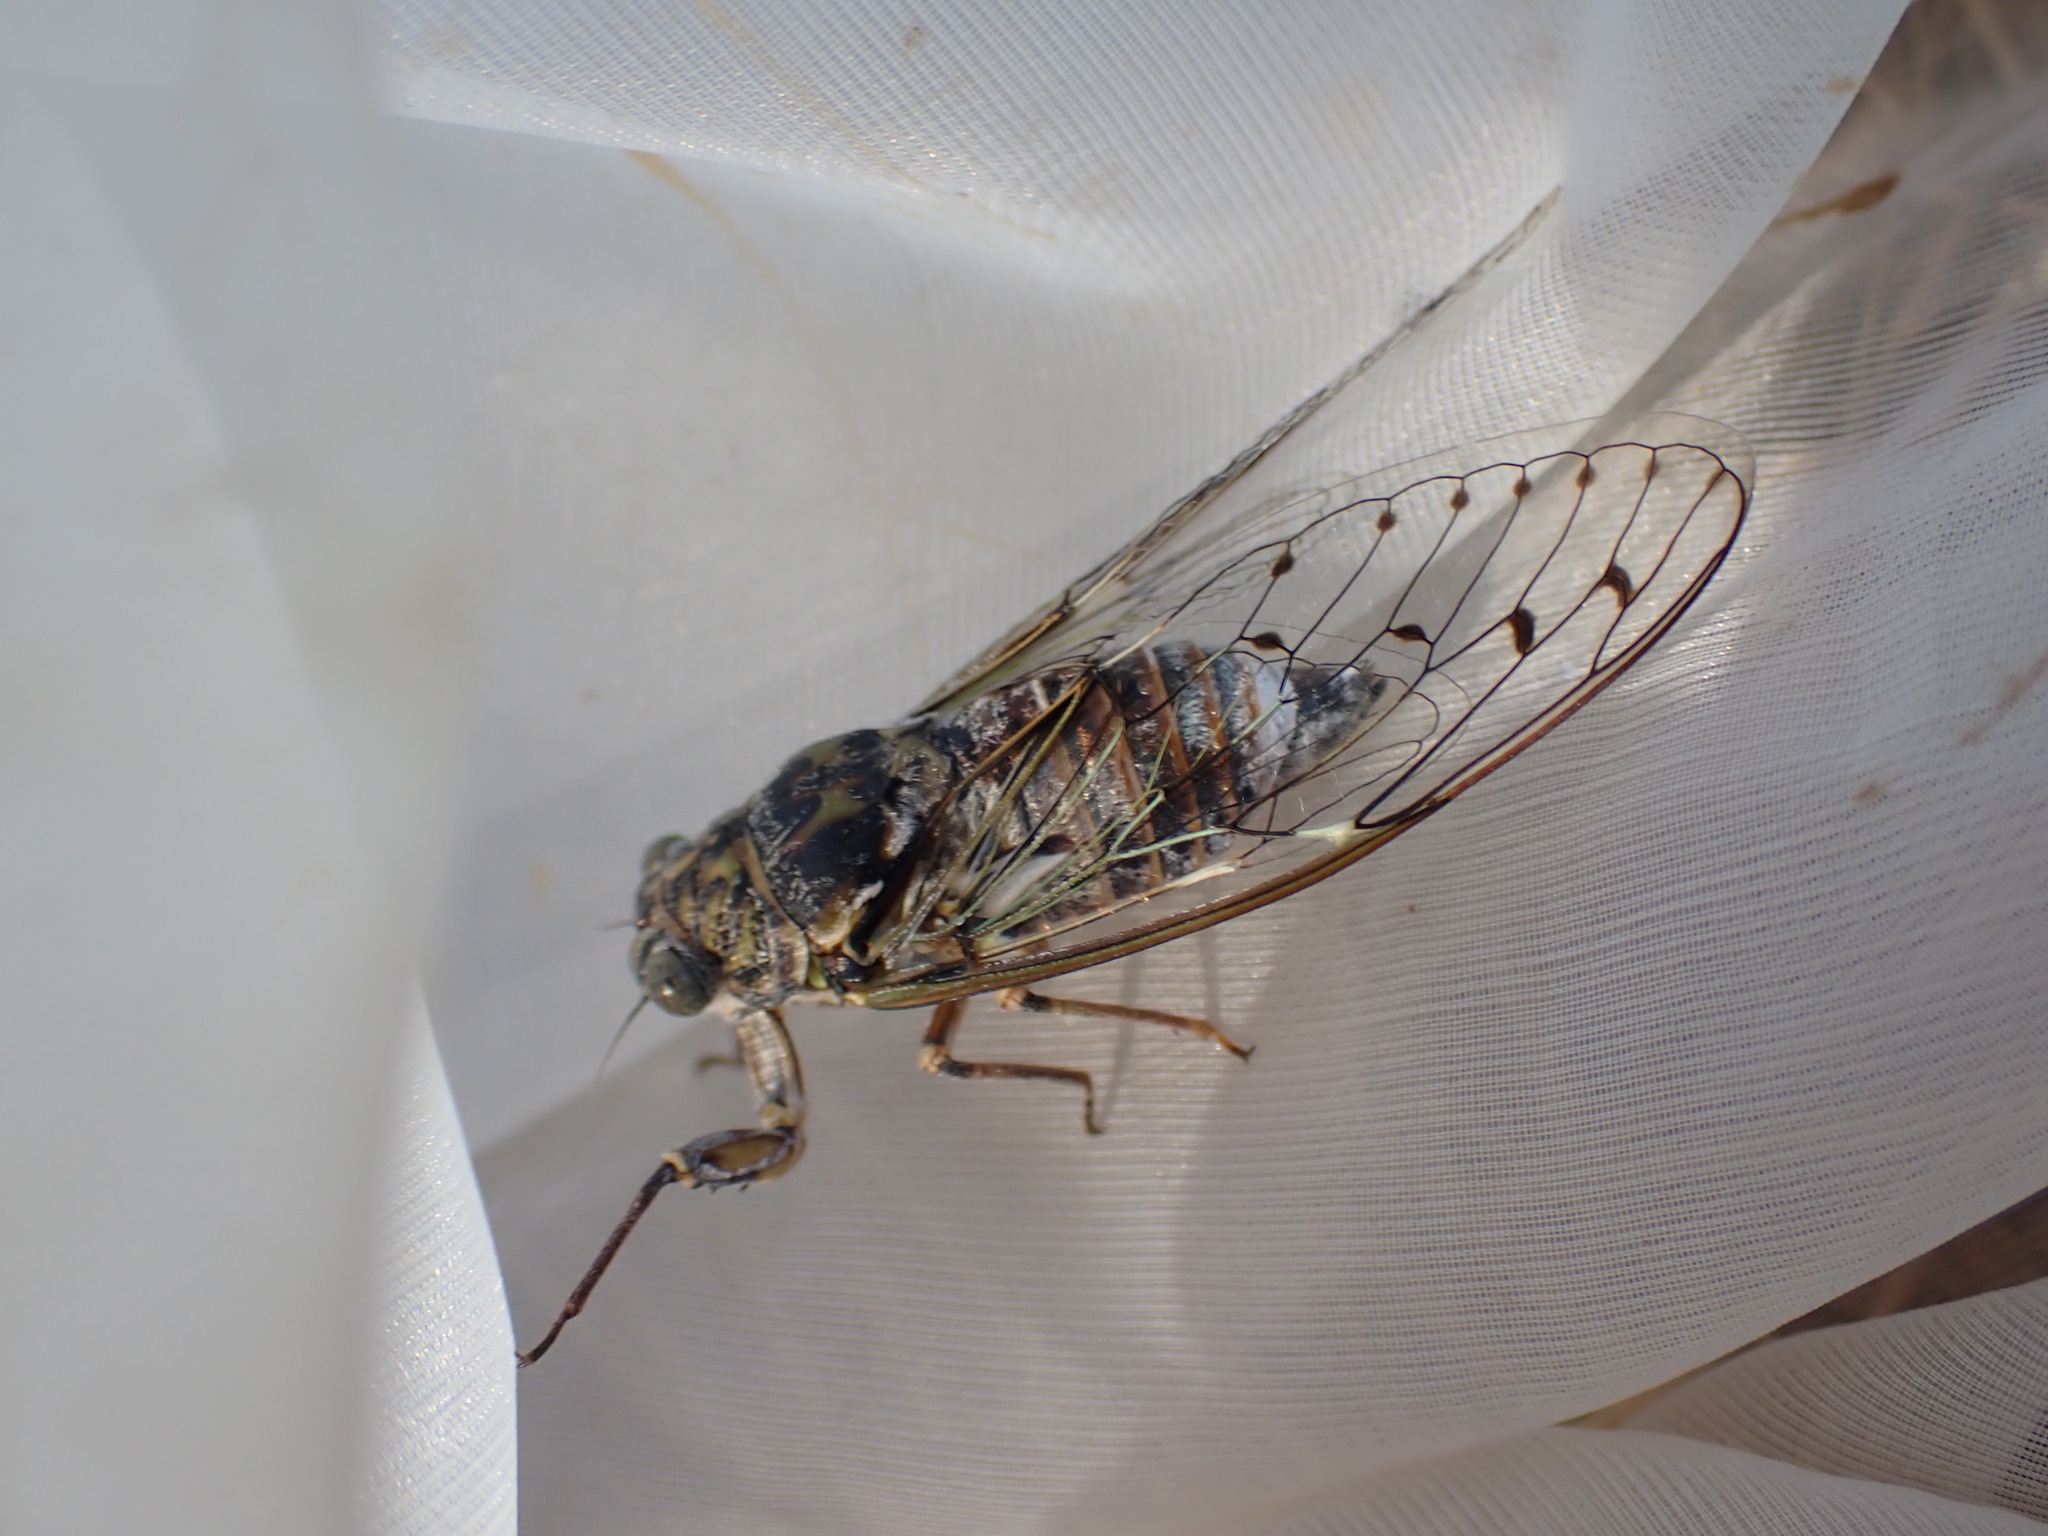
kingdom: Animalia
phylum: Arthropoda
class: Insecta
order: Hemiptera
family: Cicadidae
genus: Cicada
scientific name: Cicada orni
